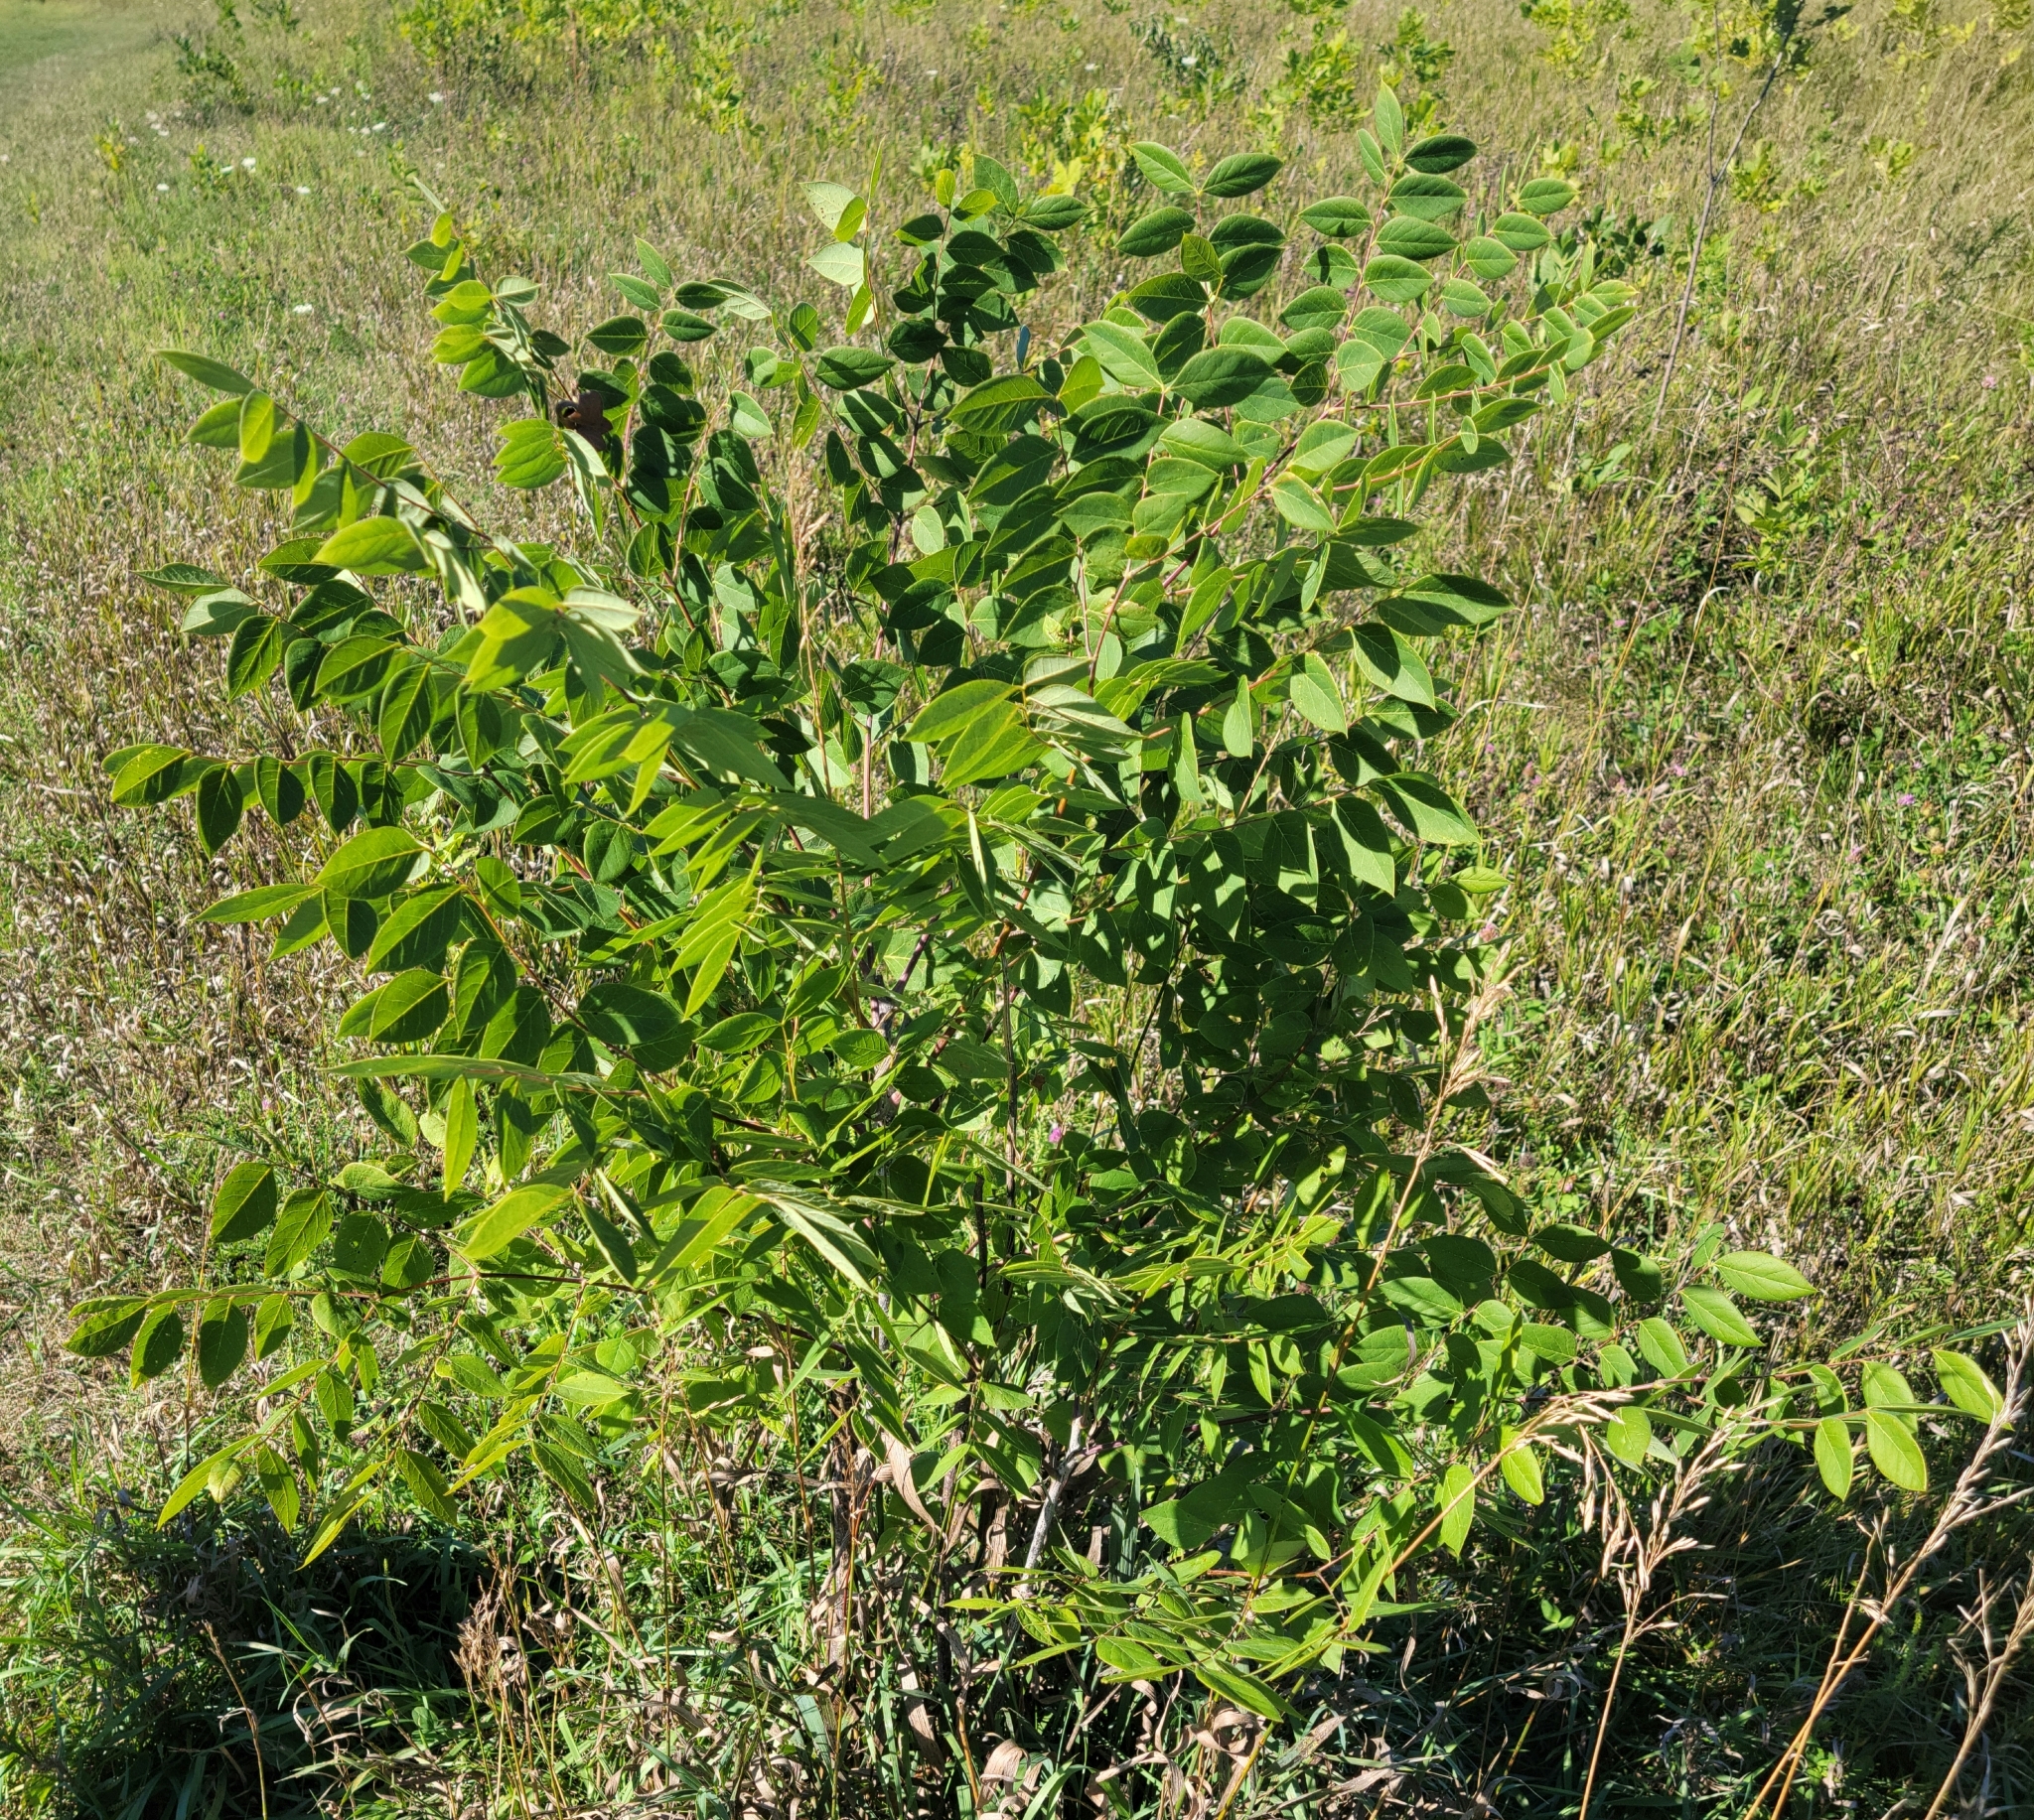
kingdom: Plantae
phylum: Tracheophyta
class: Magnoliopsida
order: Fabales
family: Fabaceae
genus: Gymnocladus
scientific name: Gymnocladus dioicus
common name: Kentucky coffee-tree
